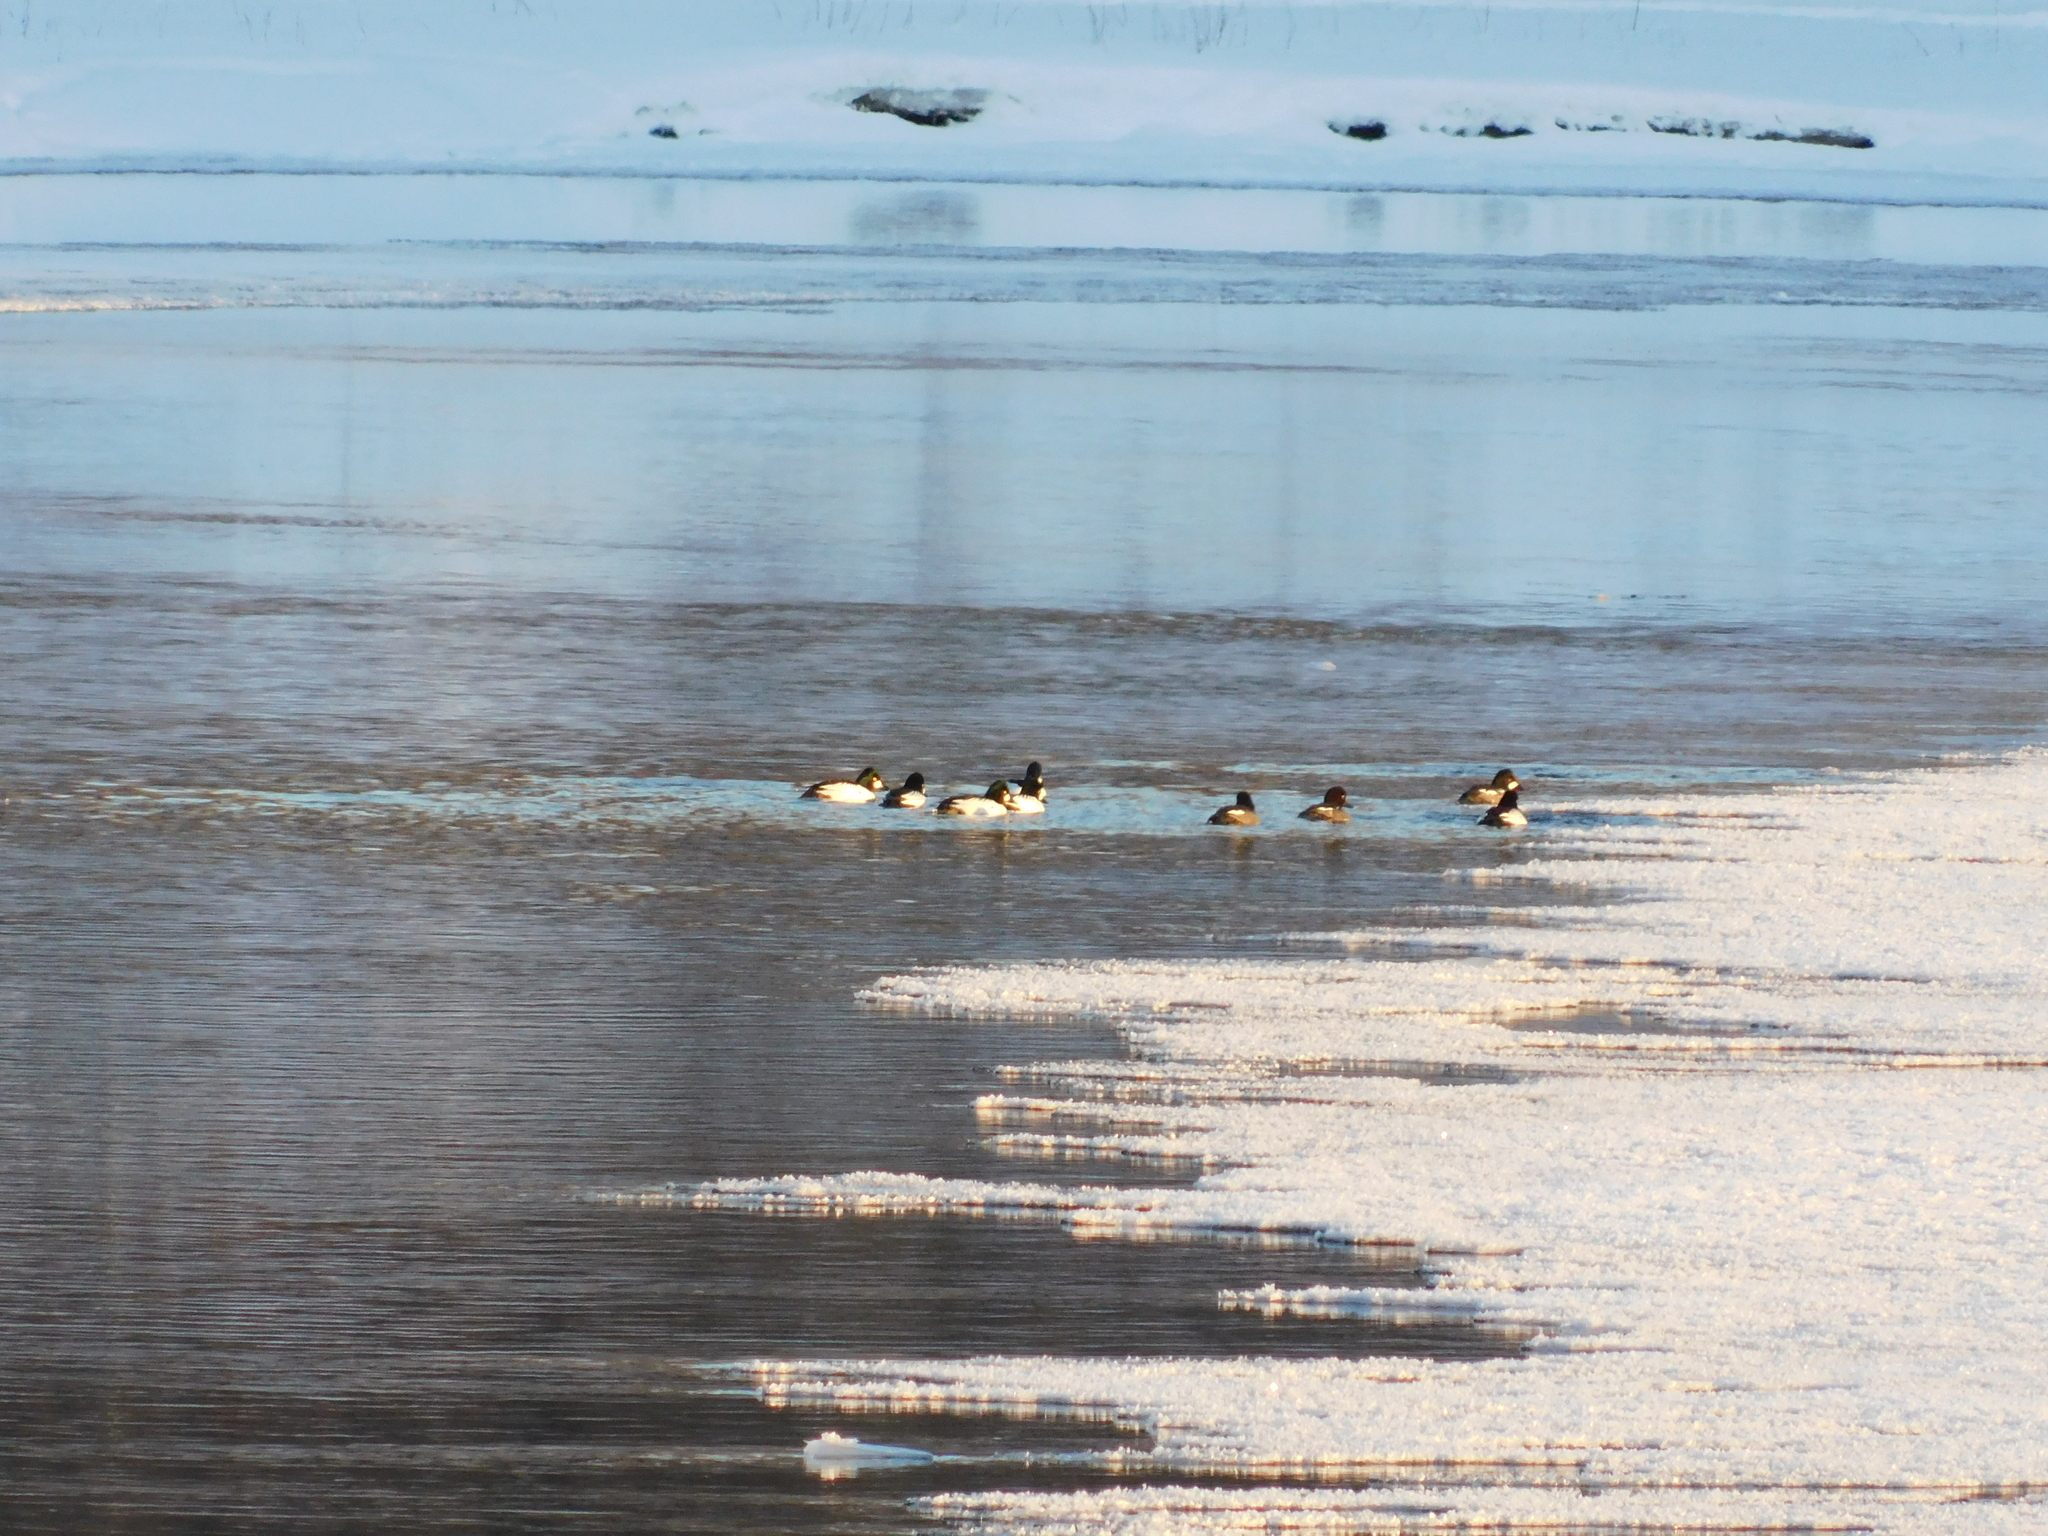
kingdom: Animalia
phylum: Chordata
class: Aves
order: Anseriformes
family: Anatidae
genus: Bucephala
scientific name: Bucephala clangula
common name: Common goldeneye
